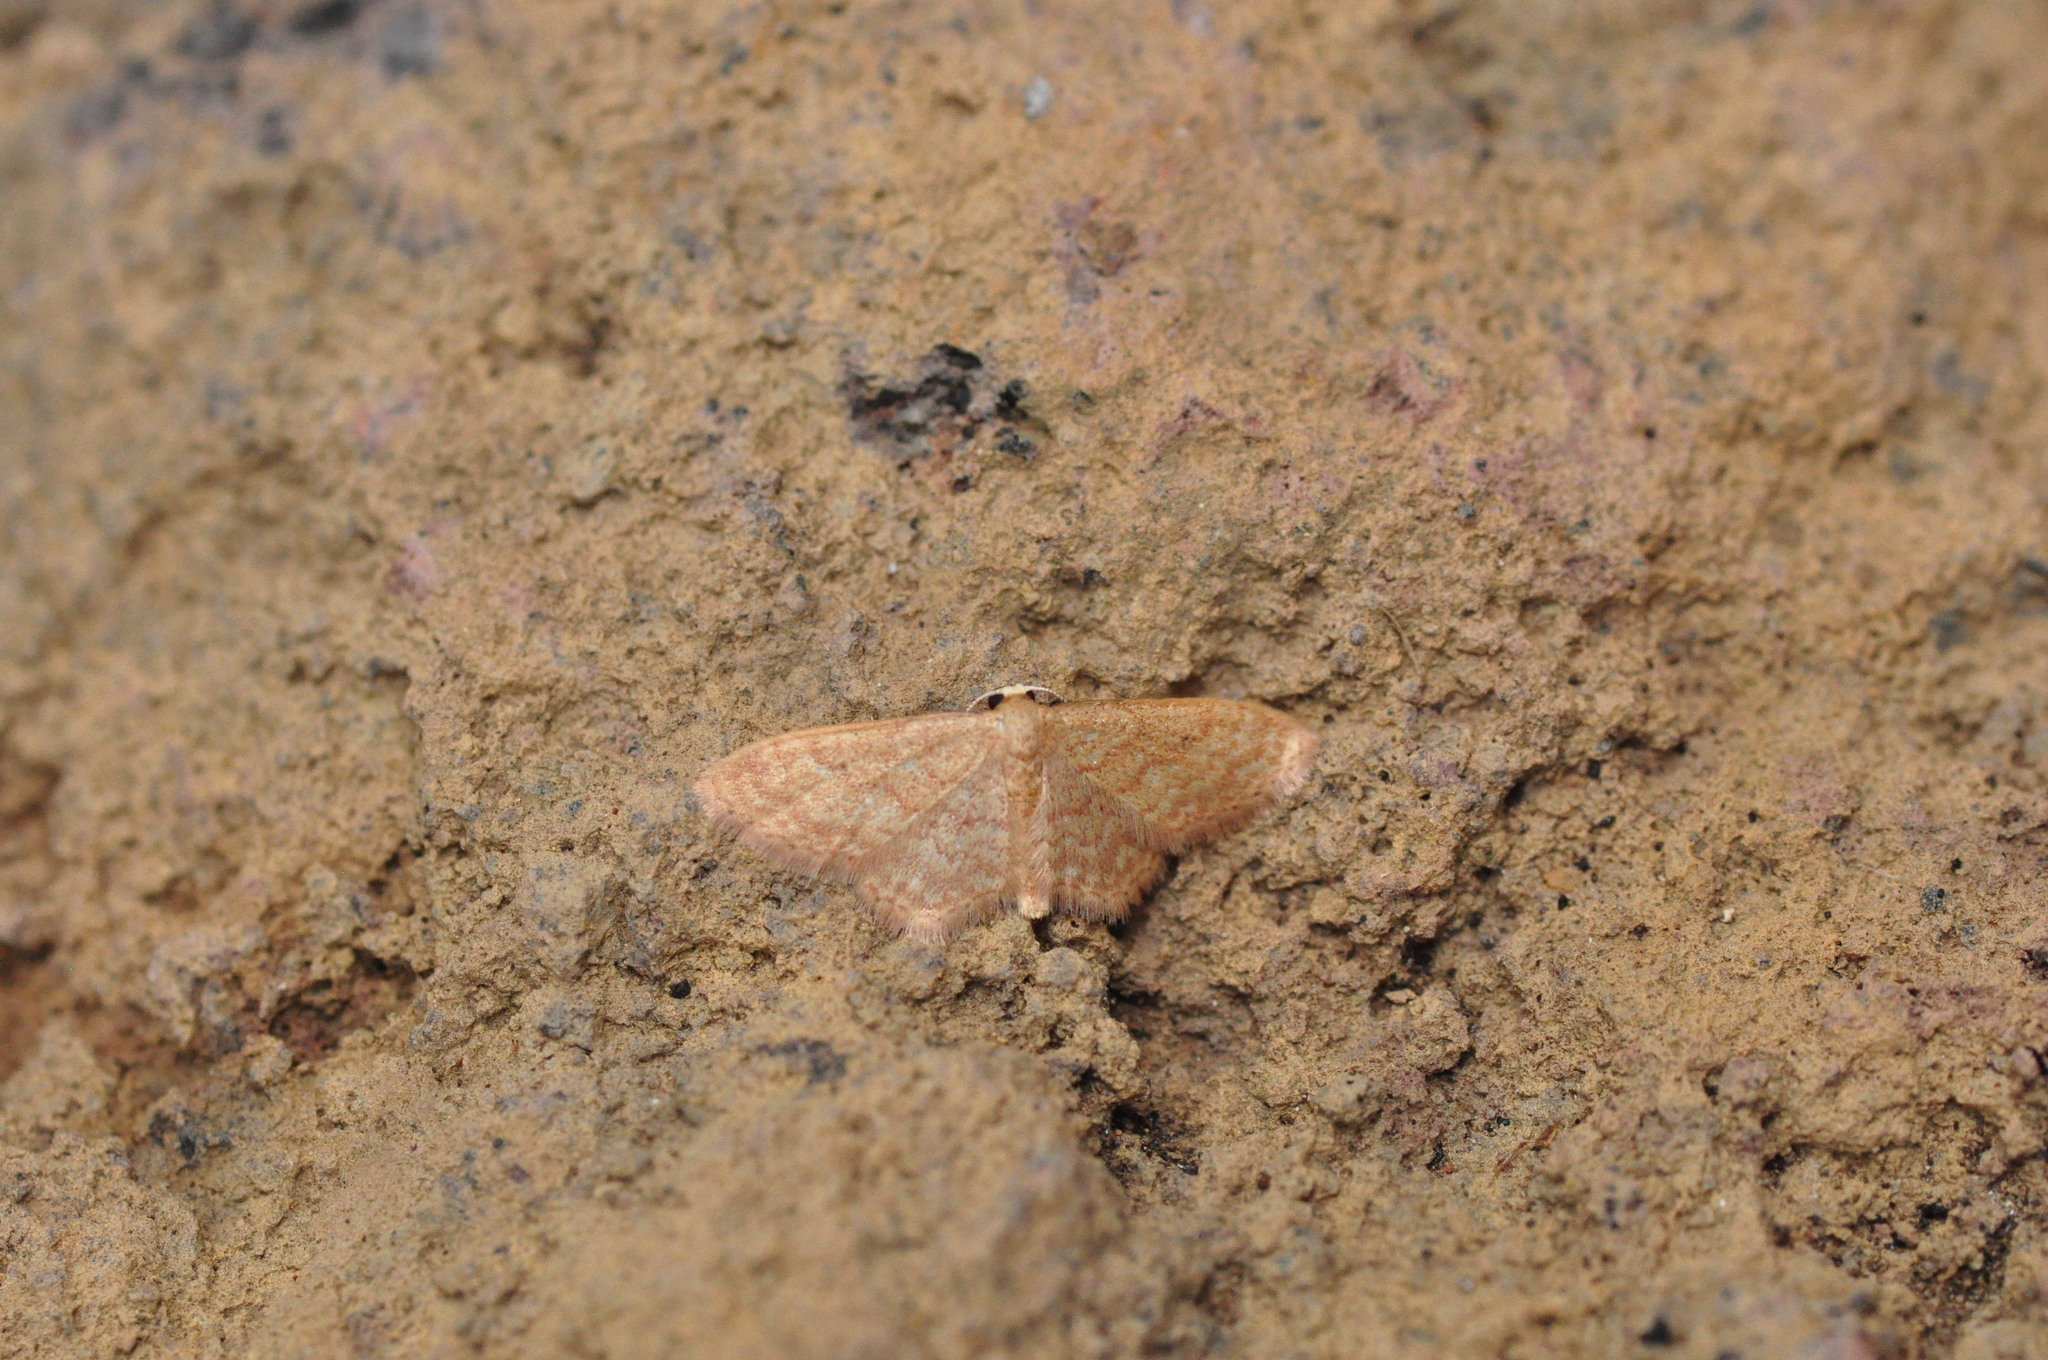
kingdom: Animalia
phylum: Arthropoda
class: Insecta
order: Lepidoptera
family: Geometridae
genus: Idaea
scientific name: Idaea charitata
